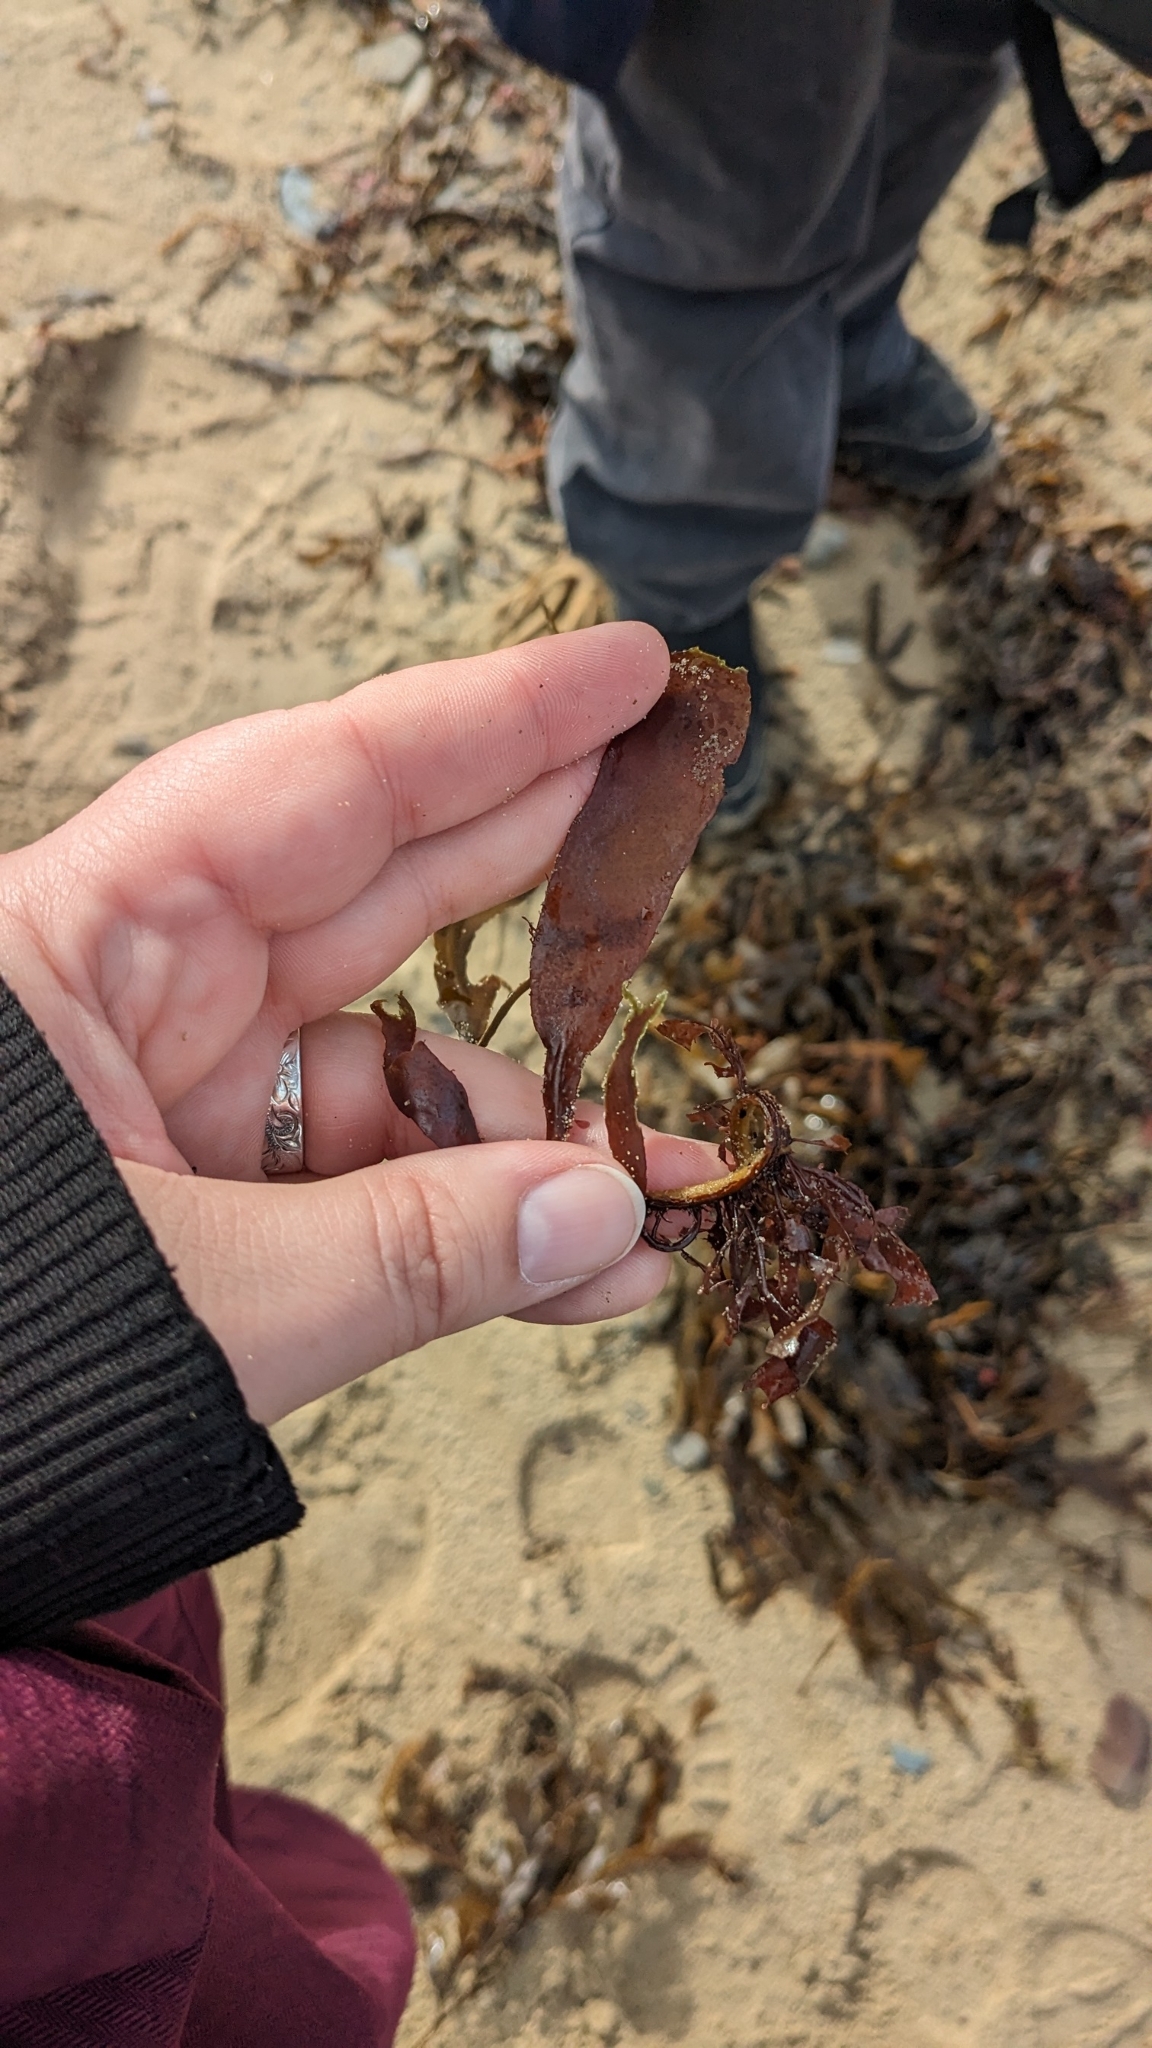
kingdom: Plantae
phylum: Rhodophyta
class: Florideophyceae
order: Palmariales
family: Palmariaceae
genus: Palmaria
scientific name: Palmaria palmata
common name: Dulse
